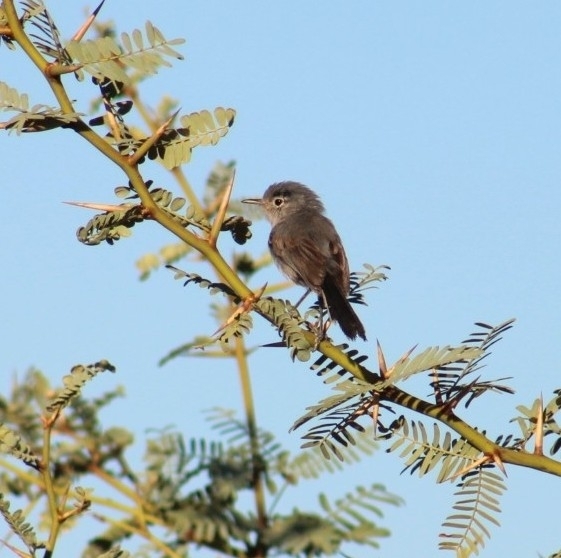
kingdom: Animalia
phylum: Chordata
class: Aves
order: Passeriformes
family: Polioptilidae
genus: Polioptila
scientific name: Polioptila melanura
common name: Black-tailed gnatcatcher
